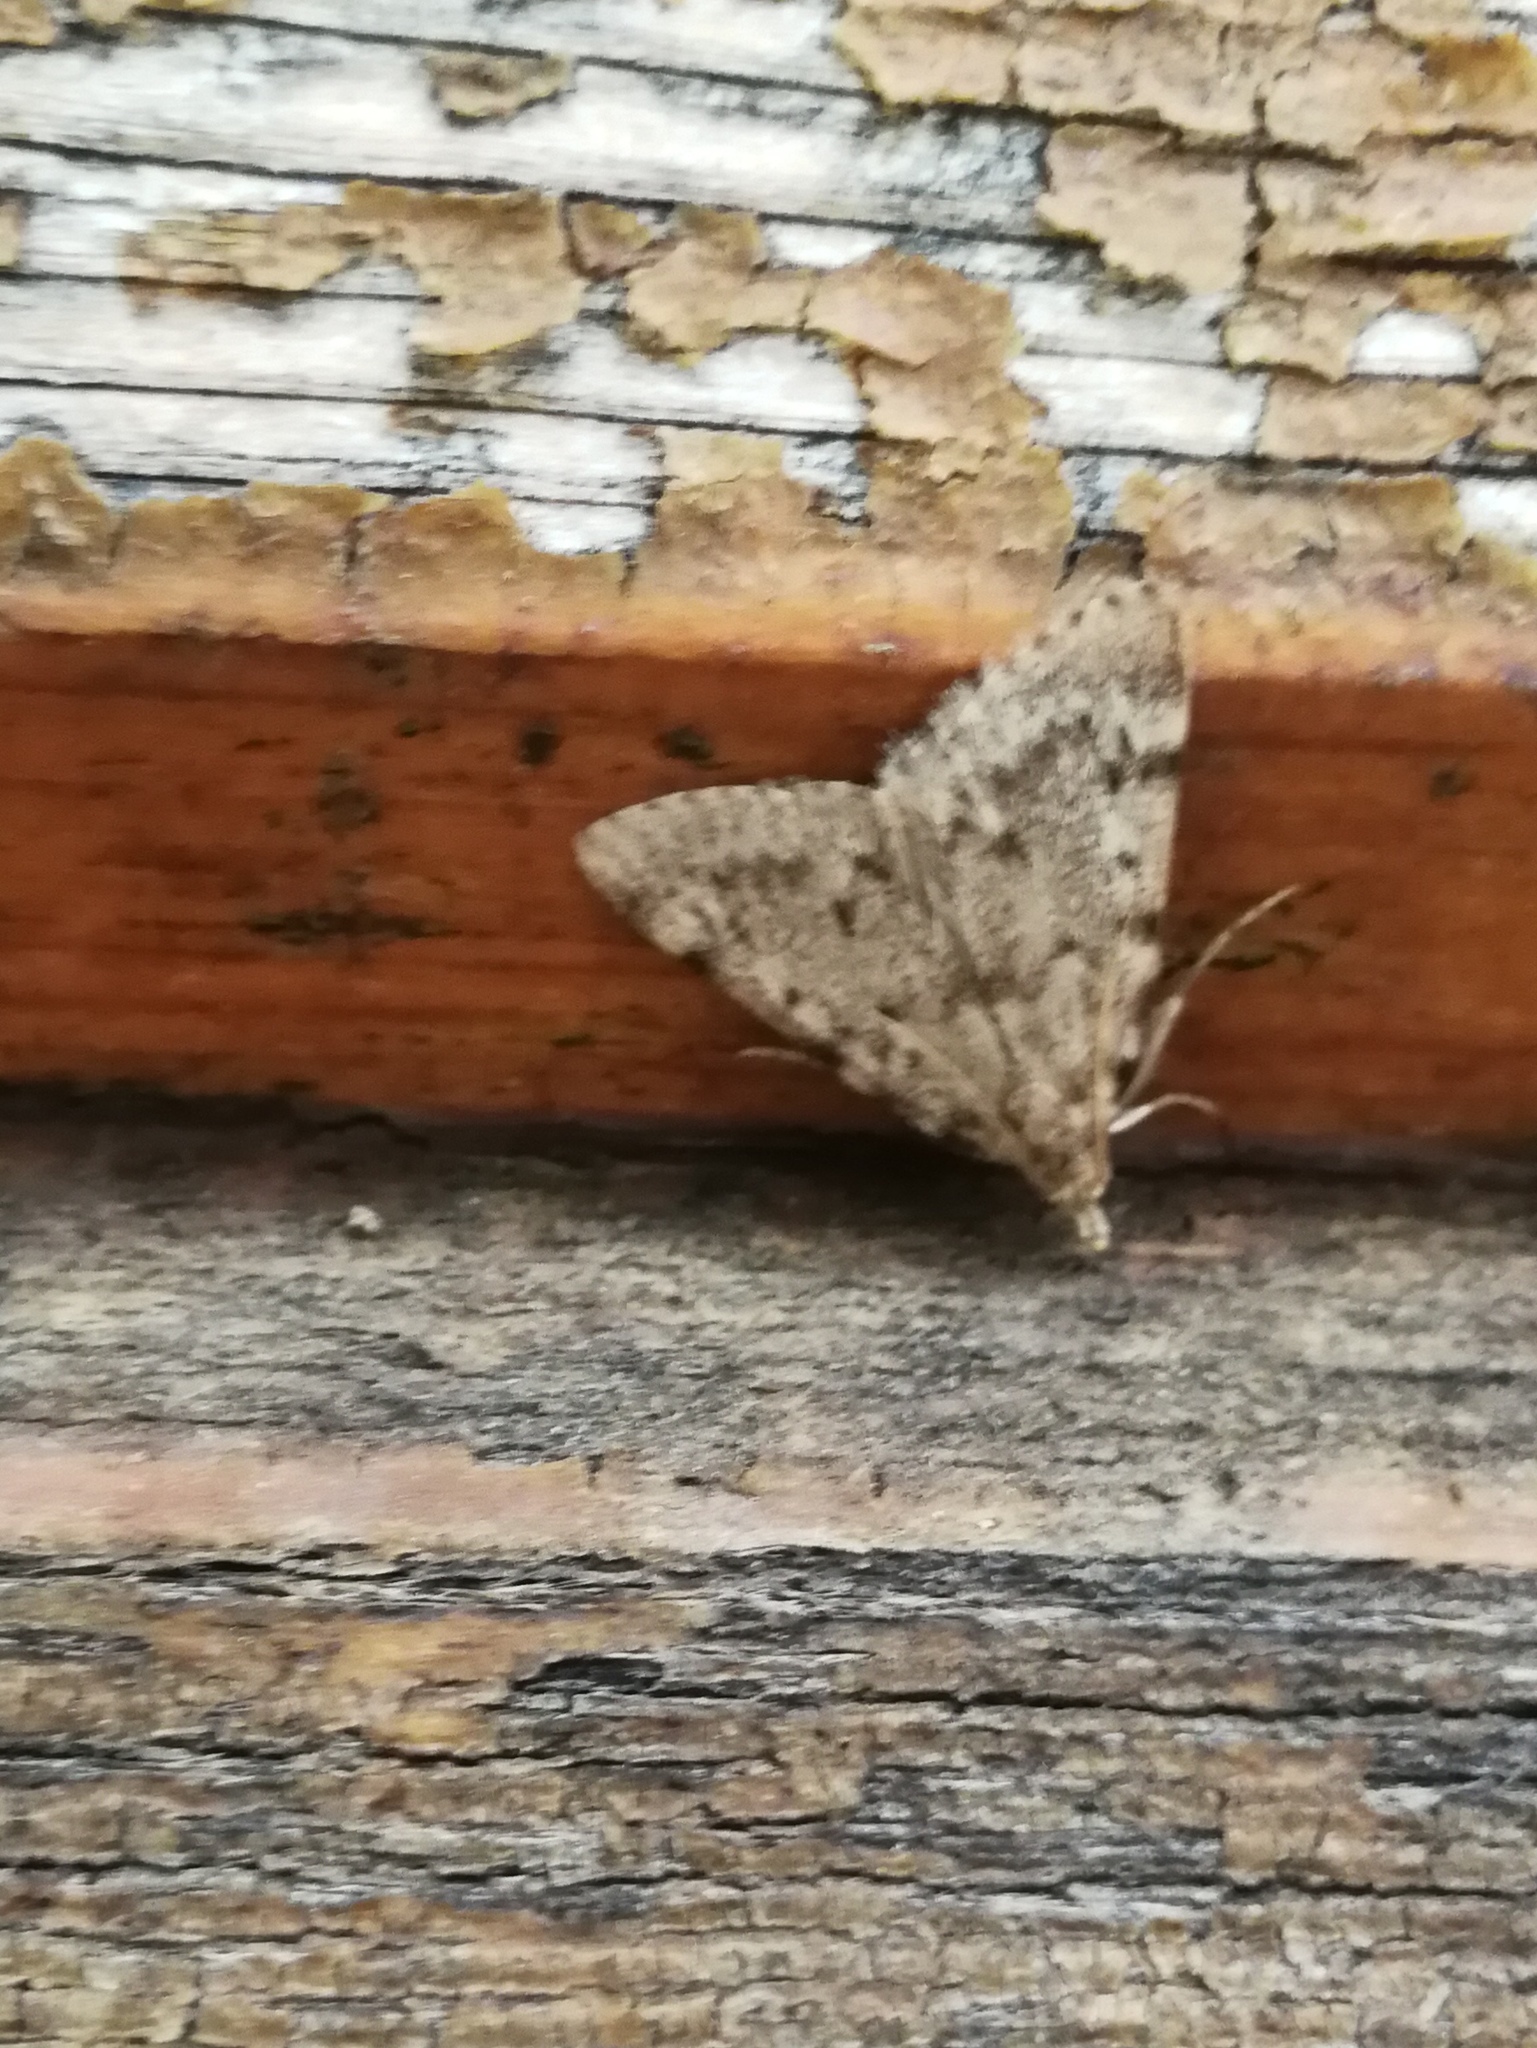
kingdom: Animalia
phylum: Arthropoda
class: Insecta
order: Lepidoptera
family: Pyralidae
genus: Aglossa
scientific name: Aglossa pinguinalis
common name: Large tabby
